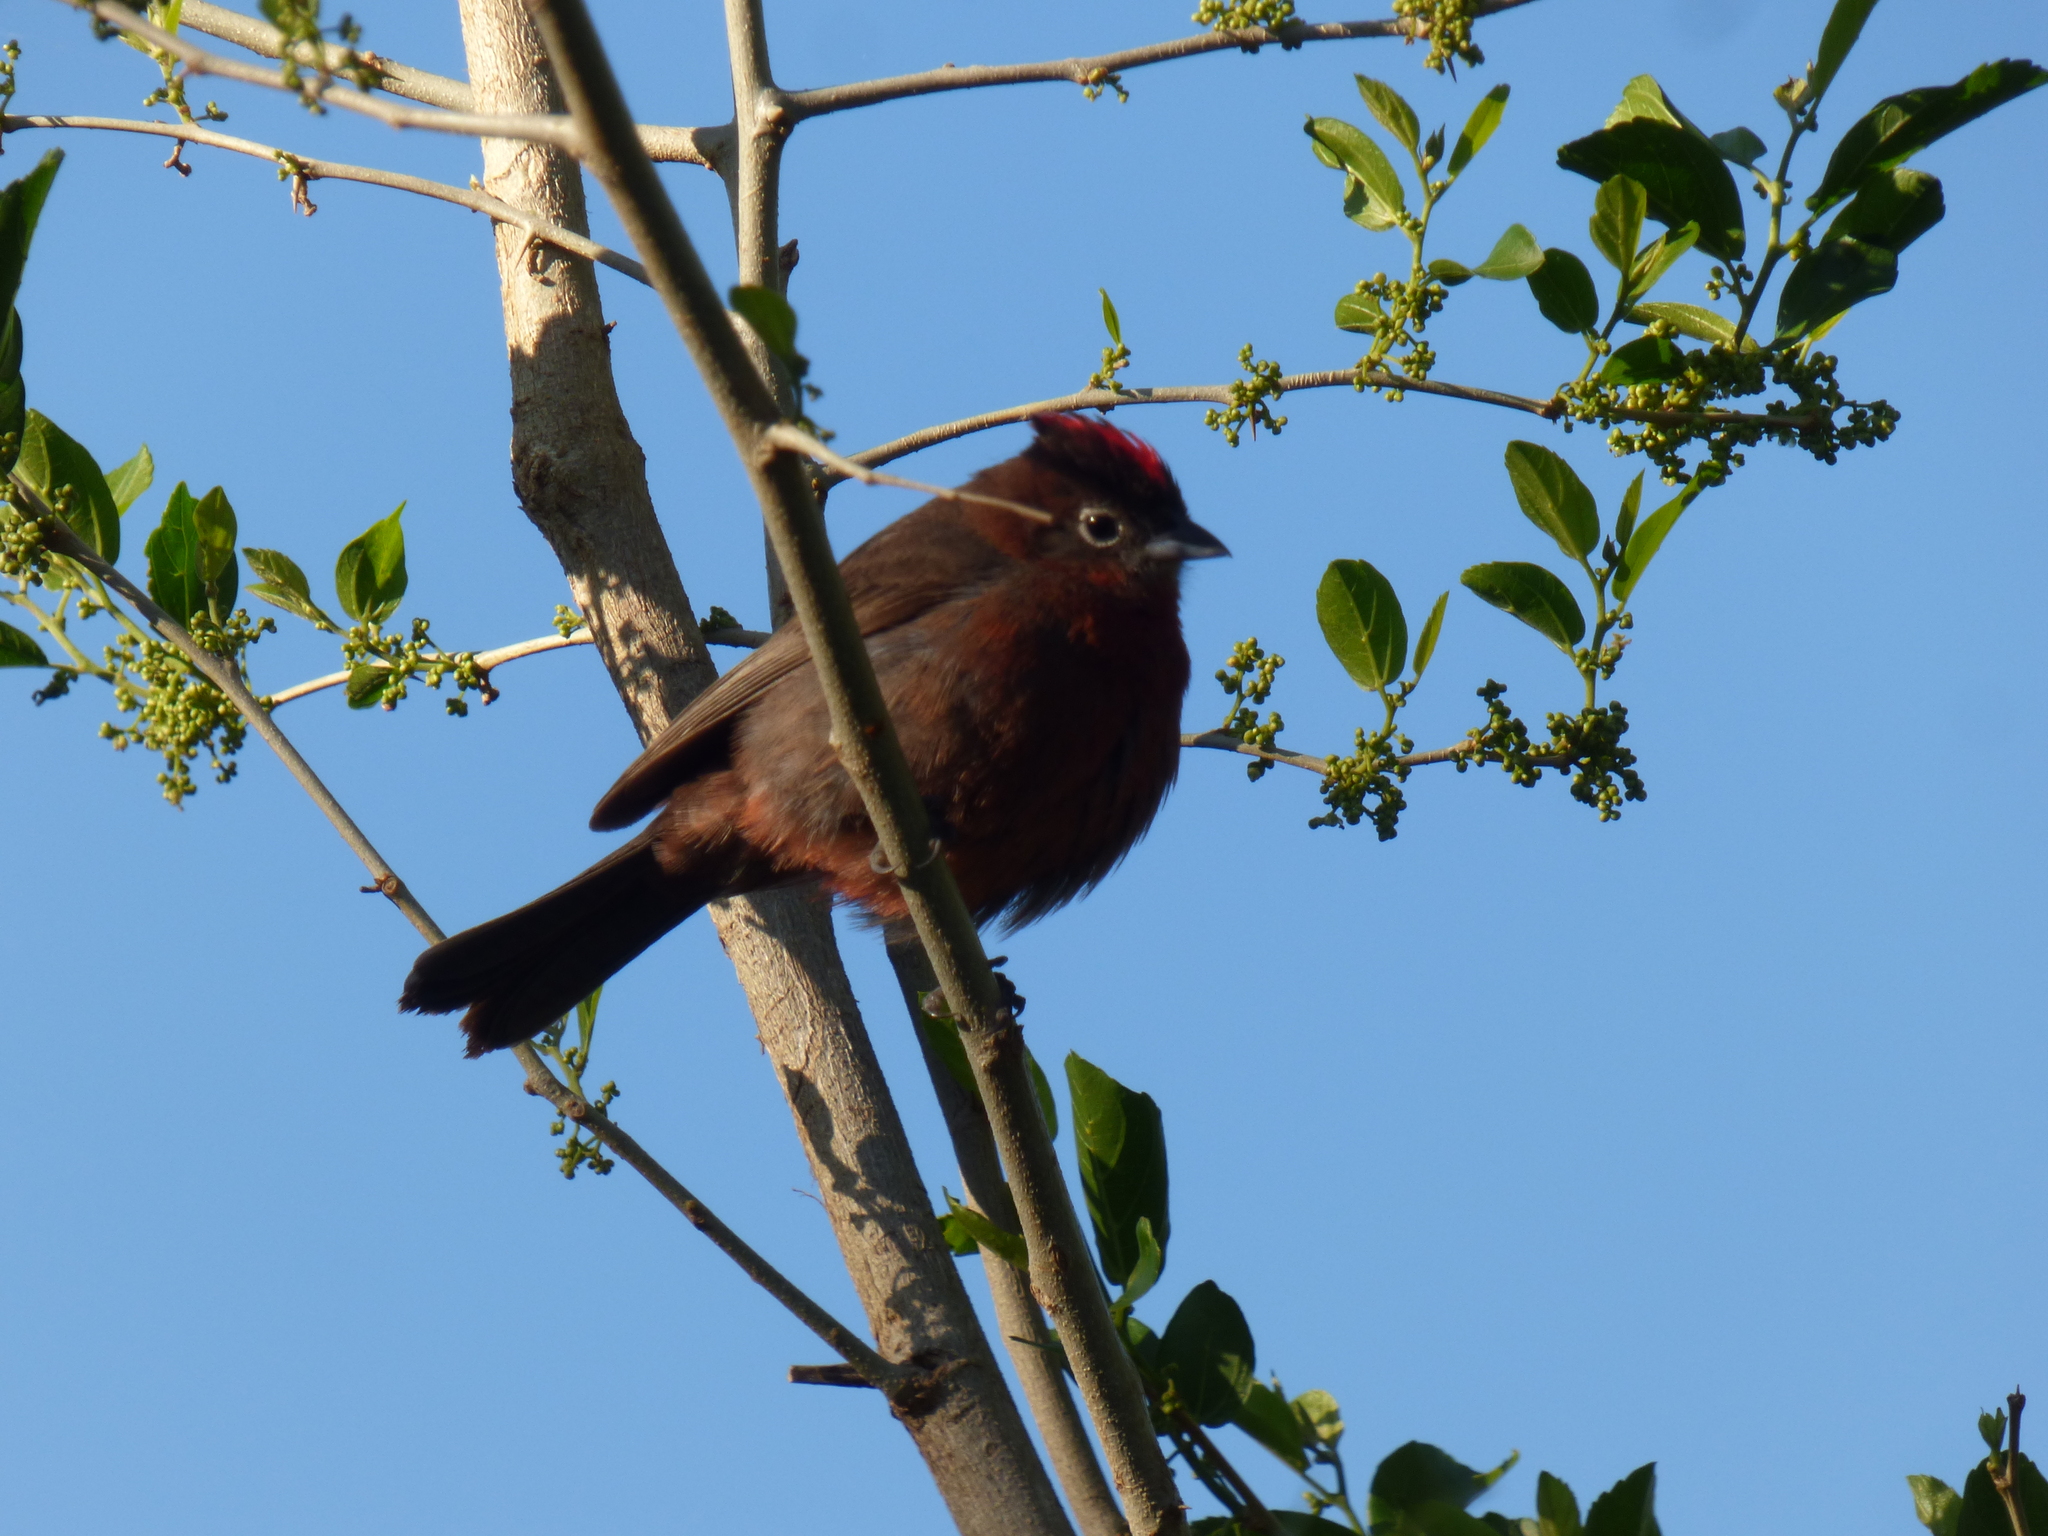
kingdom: Animalia
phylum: Chordata
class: Aves
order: Passeriformes
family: Thraupidae
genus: Coryphospingus
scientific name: Coryphospingus cucullatus
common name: Red pileated finch
